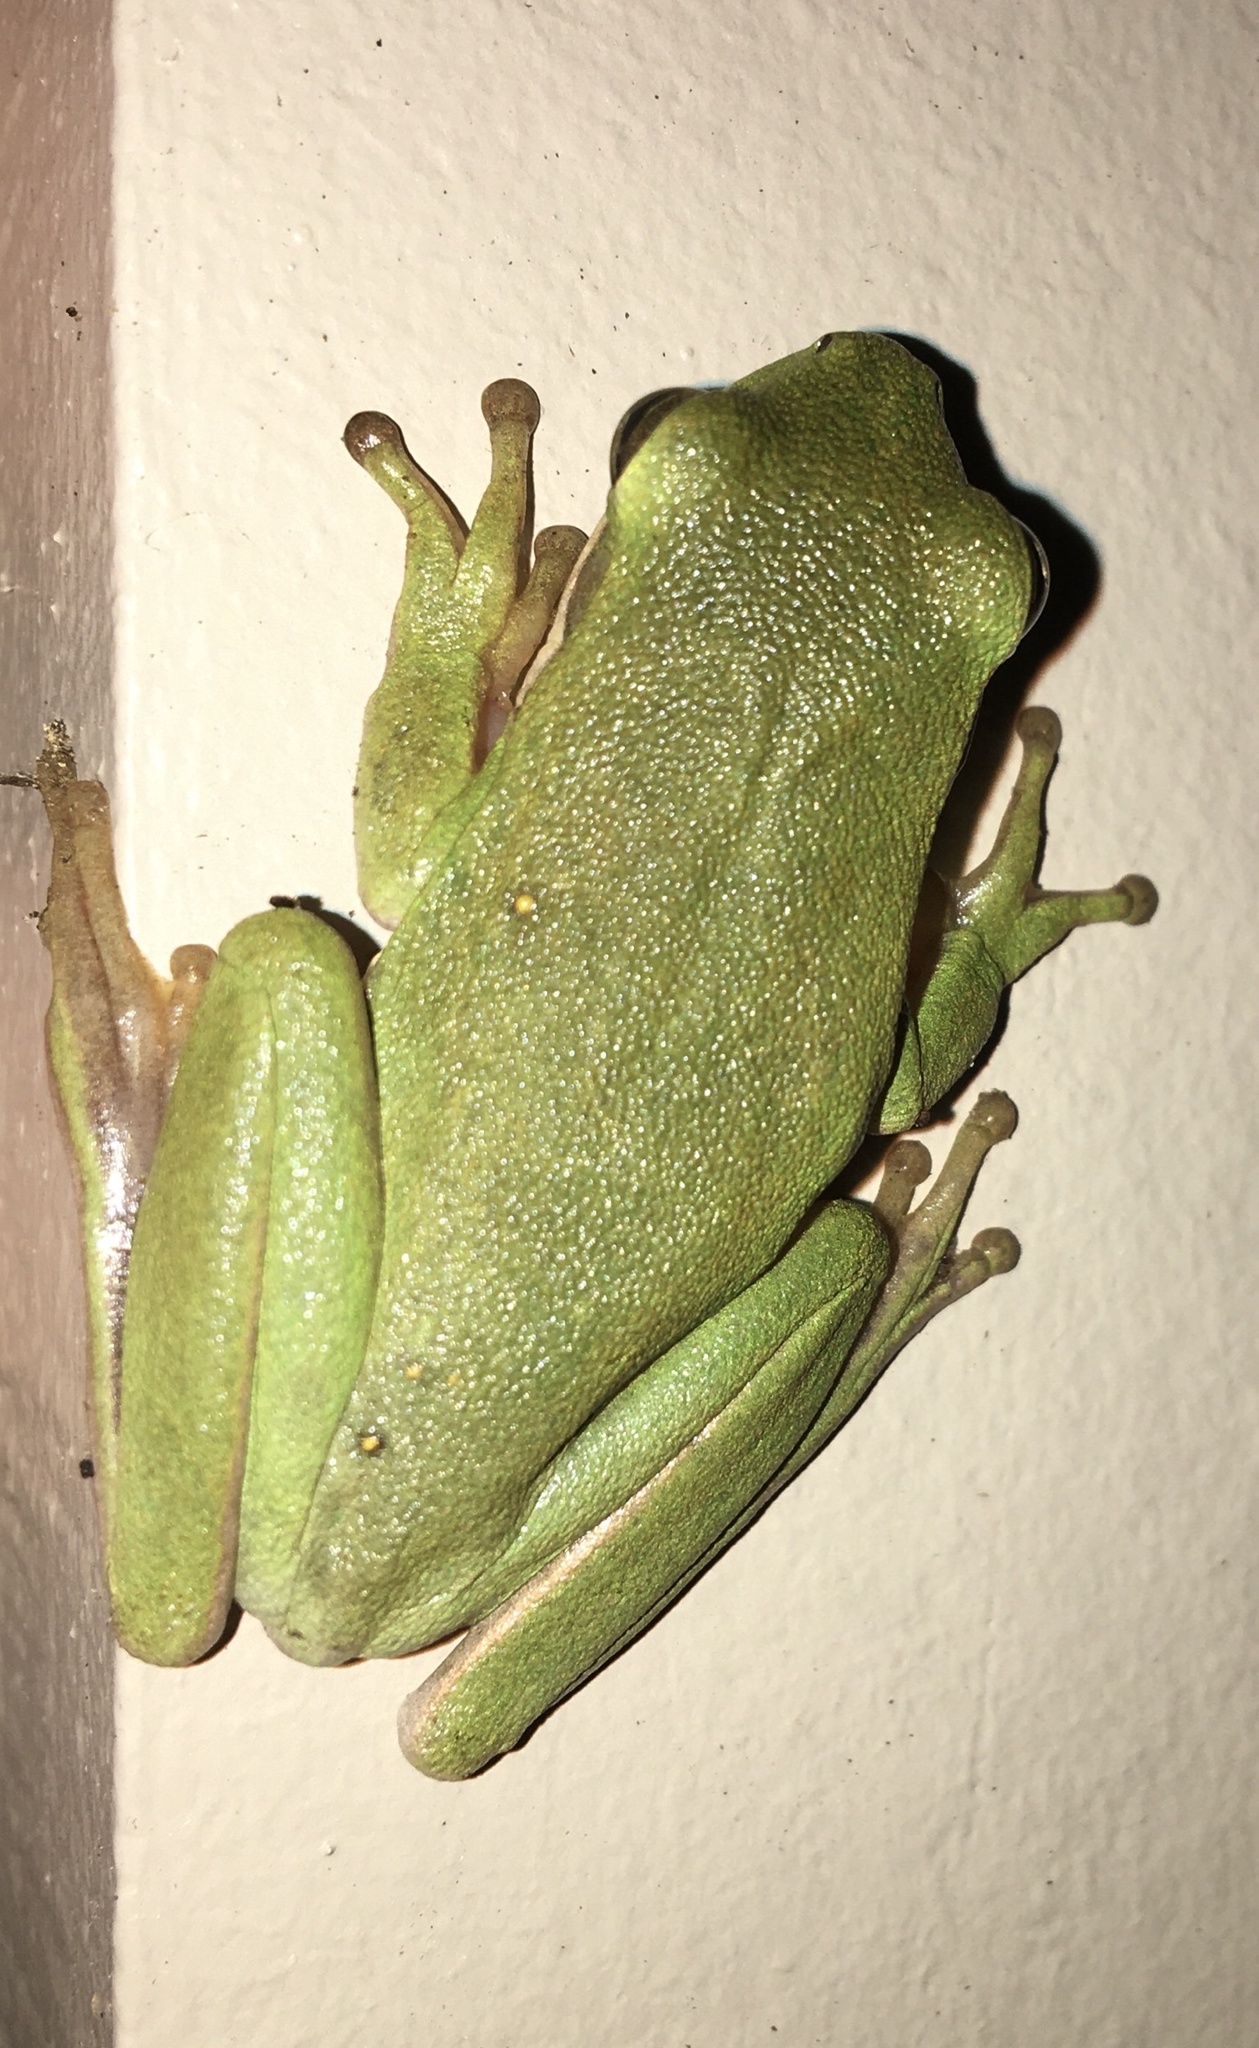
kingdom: Animalia
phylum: Chordata
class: Amphibia
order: Anura
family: Hylidae
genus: Dryophytes
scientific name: Dryophytes cinereus
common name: Green treefrog
